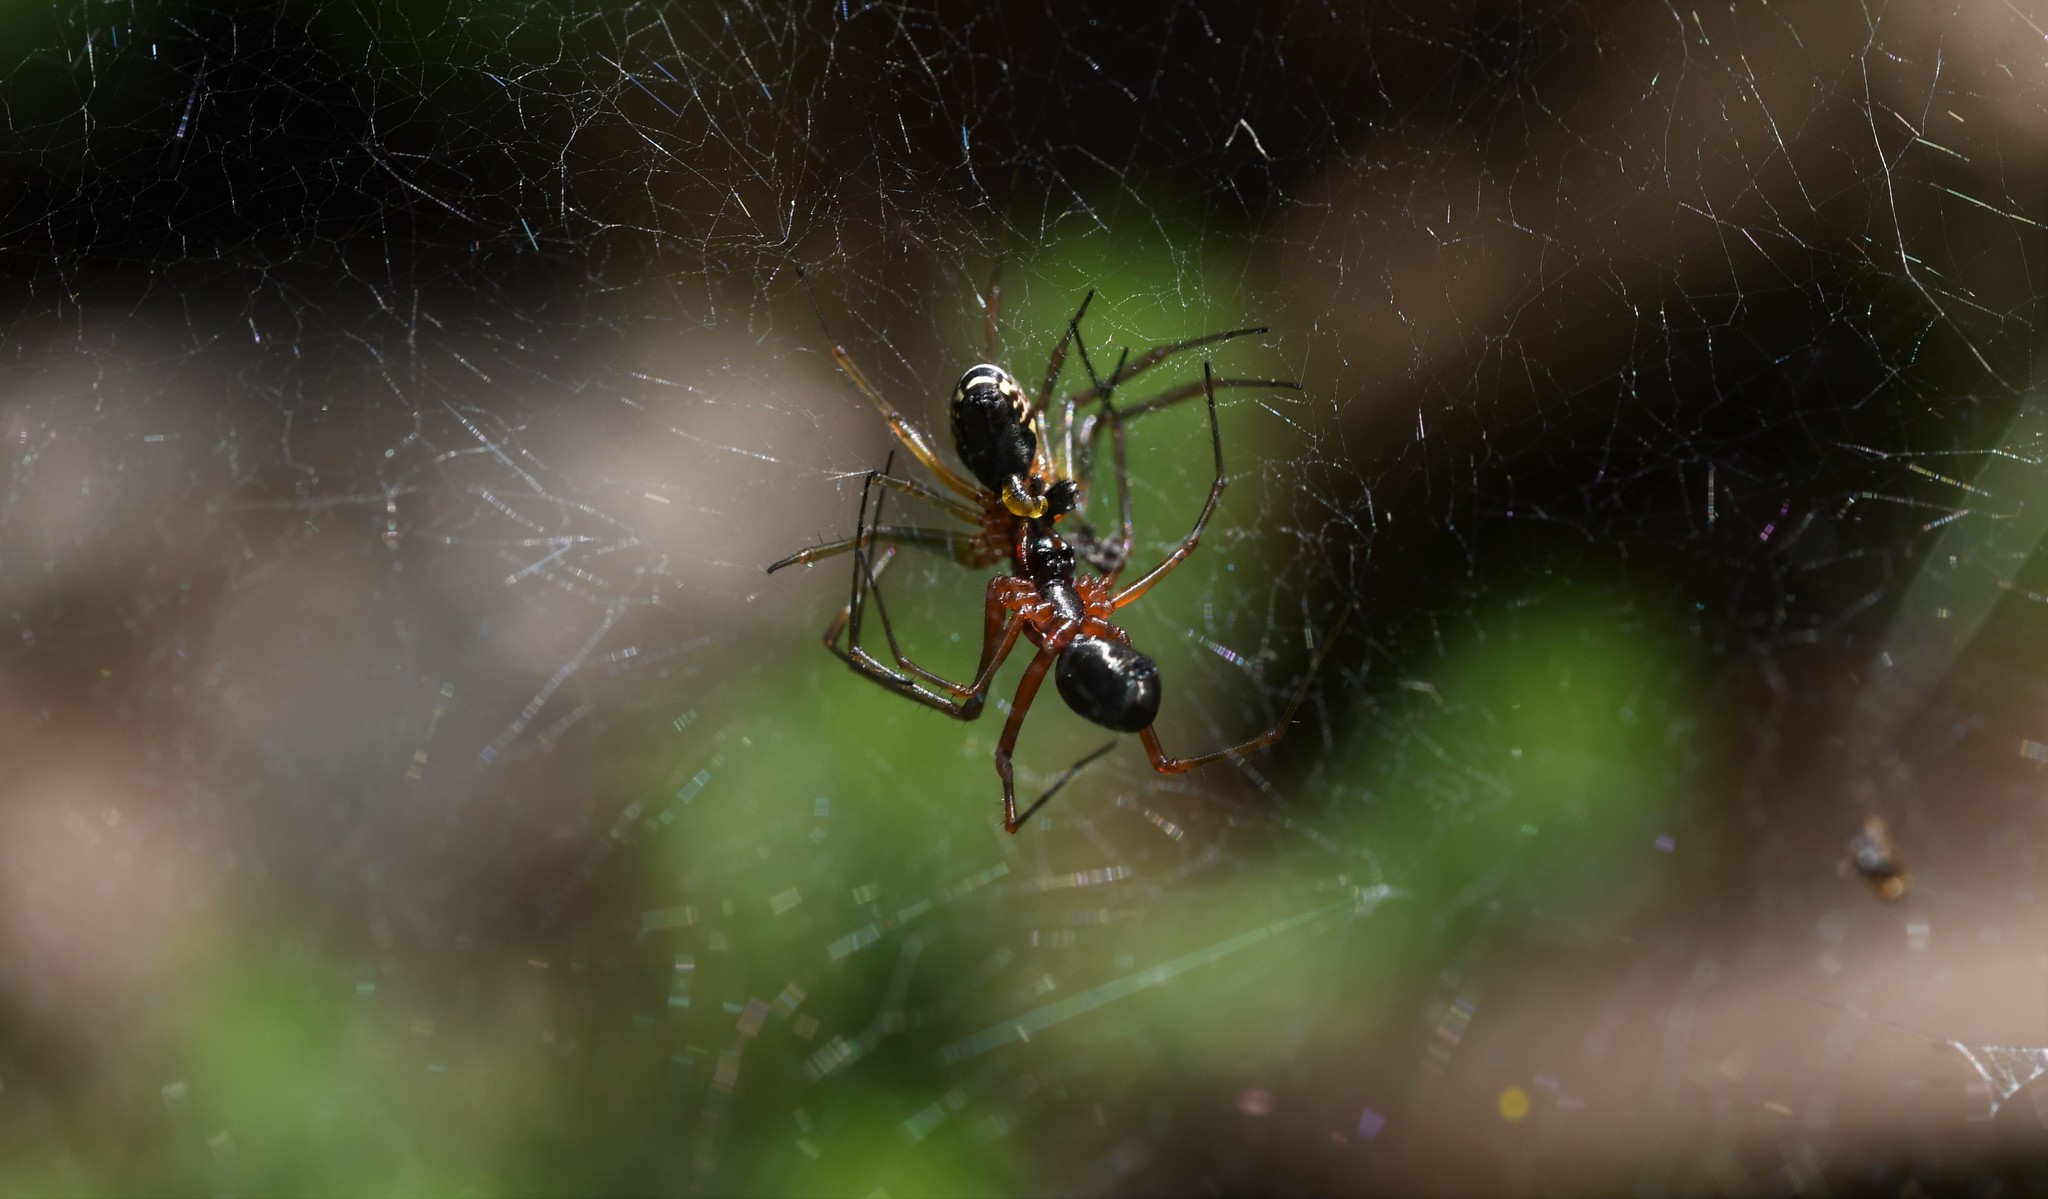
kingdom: Animalia
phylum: Arthropoda
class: Arachnida
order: Araneae
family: Linyphiidae
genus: Frontinellina
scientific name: Frontinellina frutetorum
